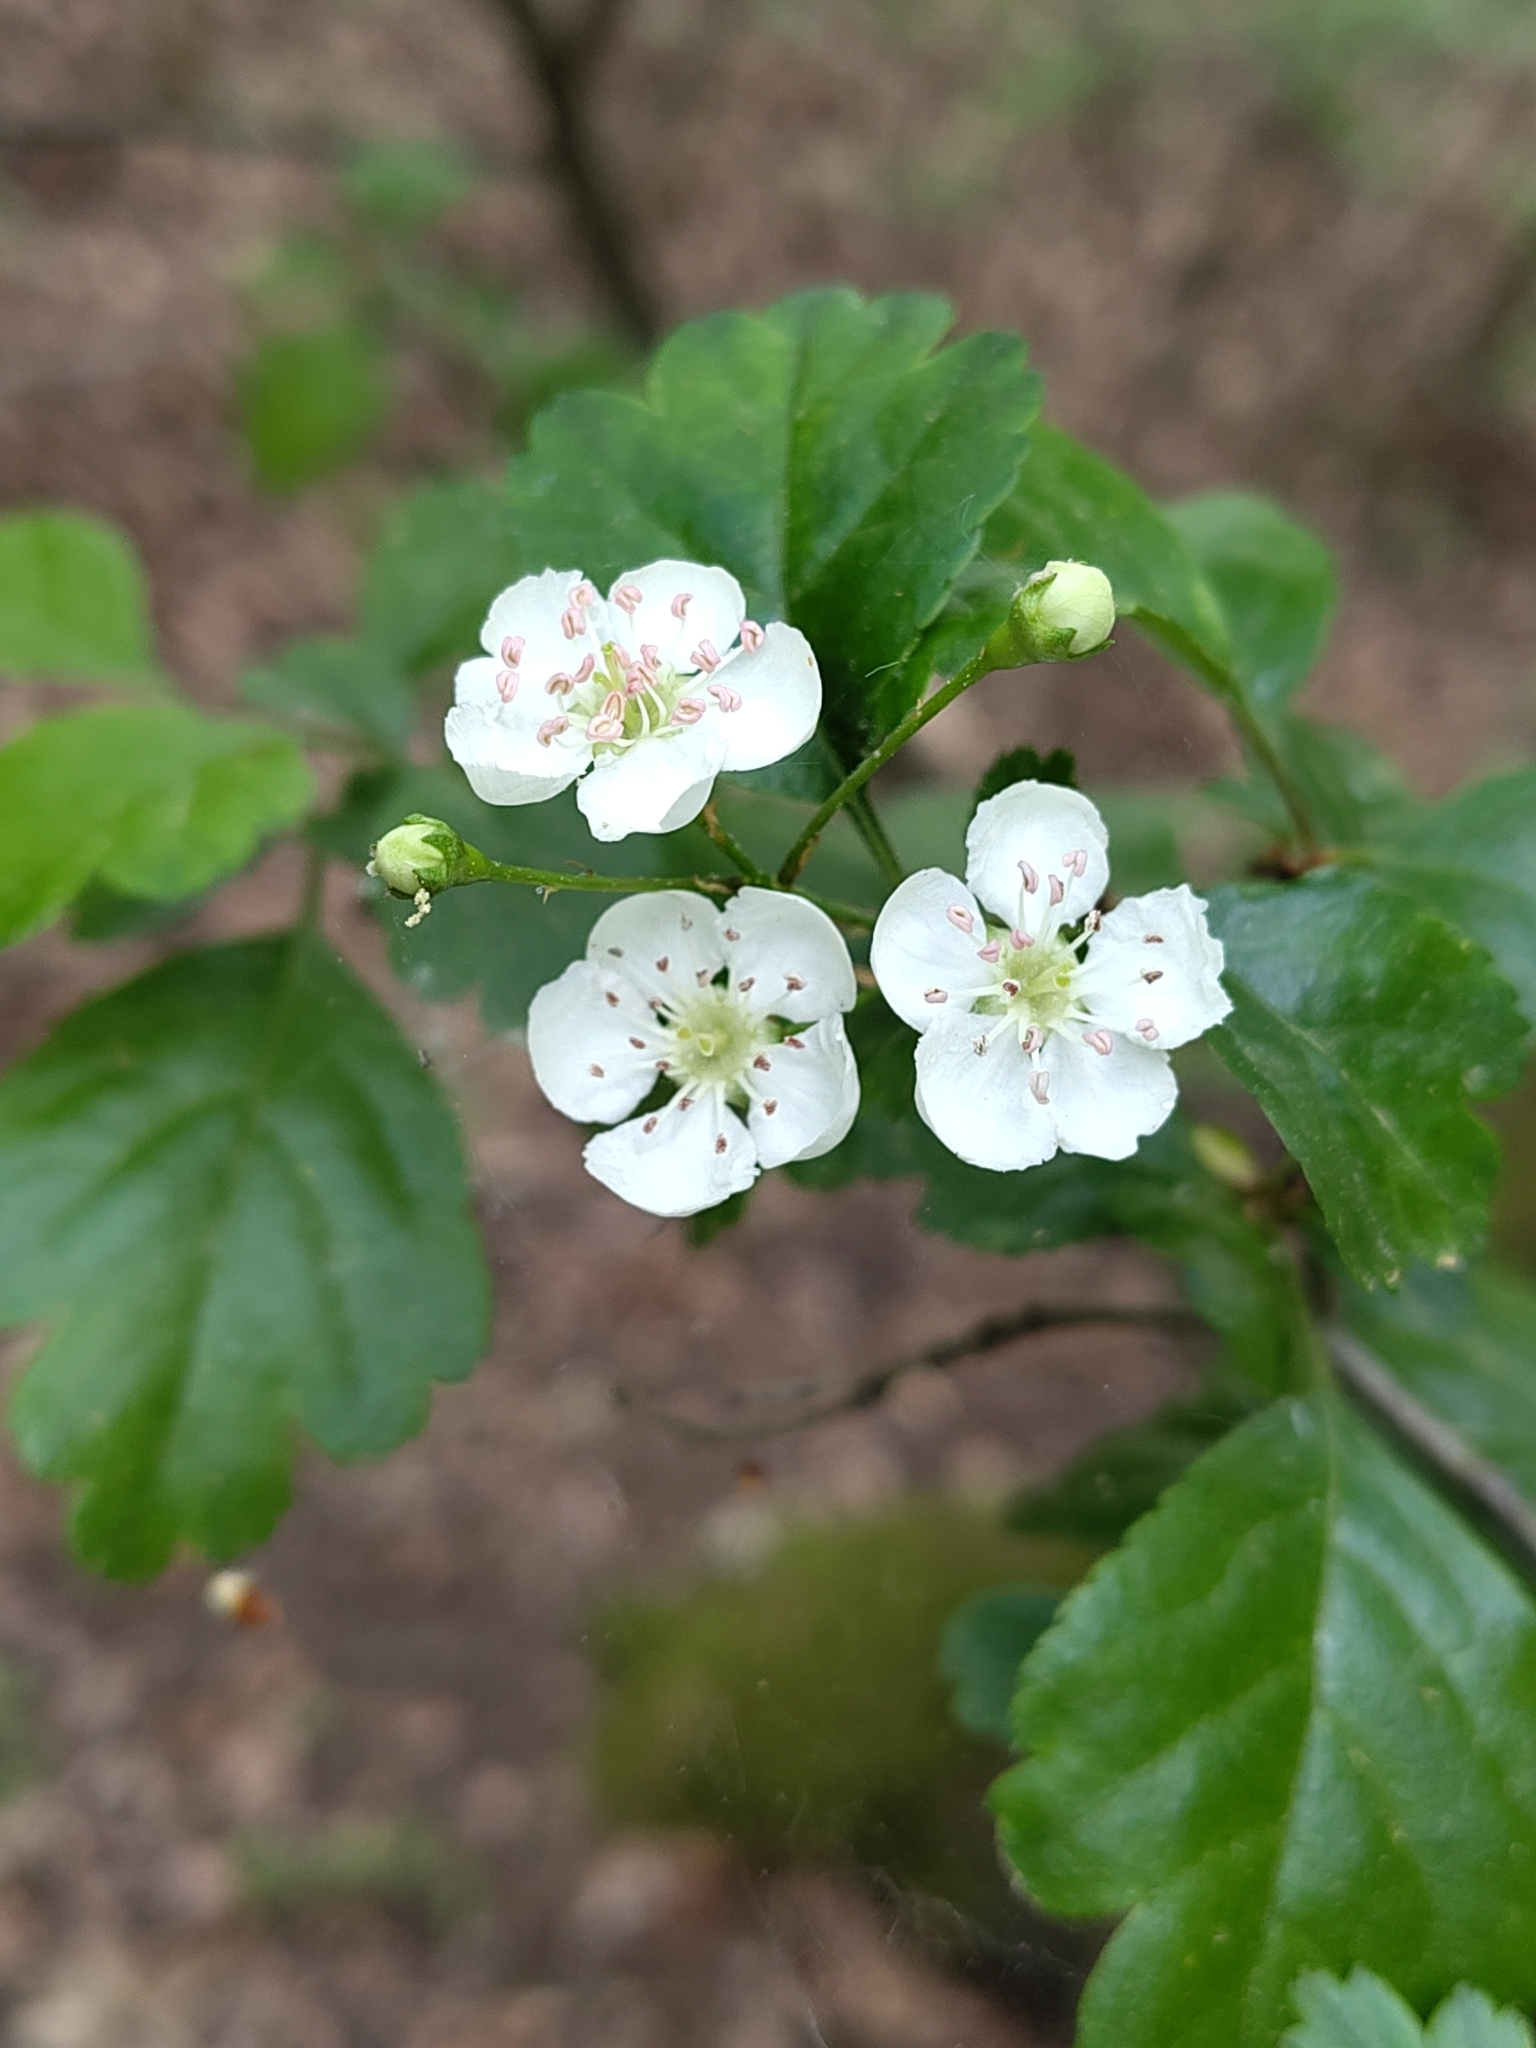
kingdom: Plantae
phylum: Tracheophyta
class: Magnoliopsida
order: Rosales
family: Rosaceae
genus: Crataegus
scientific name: Crataegus laevigata
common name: Midland hawthorn
